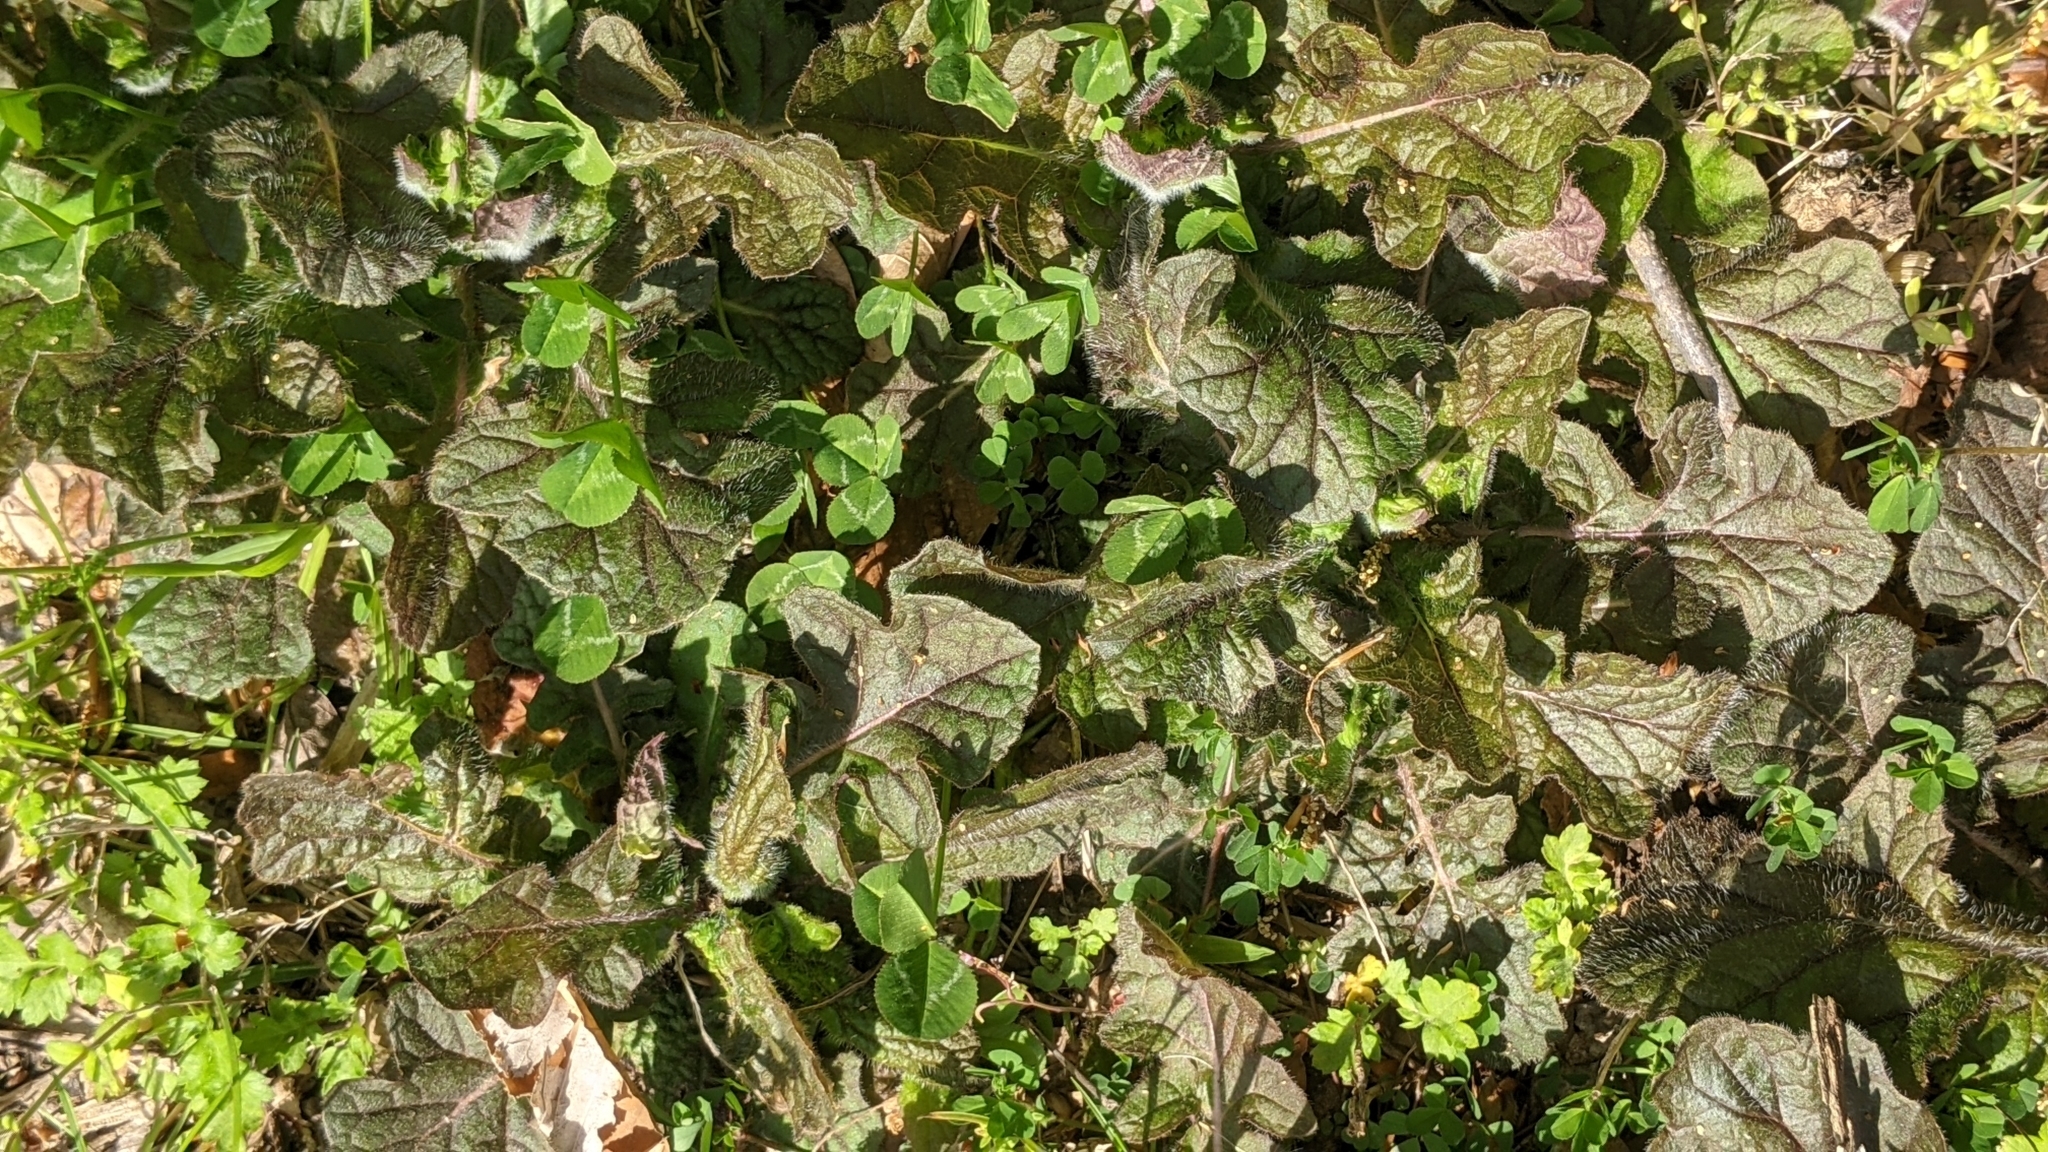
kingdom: Plantae
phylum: Tracheophyta
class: Magnoliopsida
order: Lamiales
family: Lamiaceae
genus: Salvia
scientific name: Salvia lyrata
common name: Cancerweed
